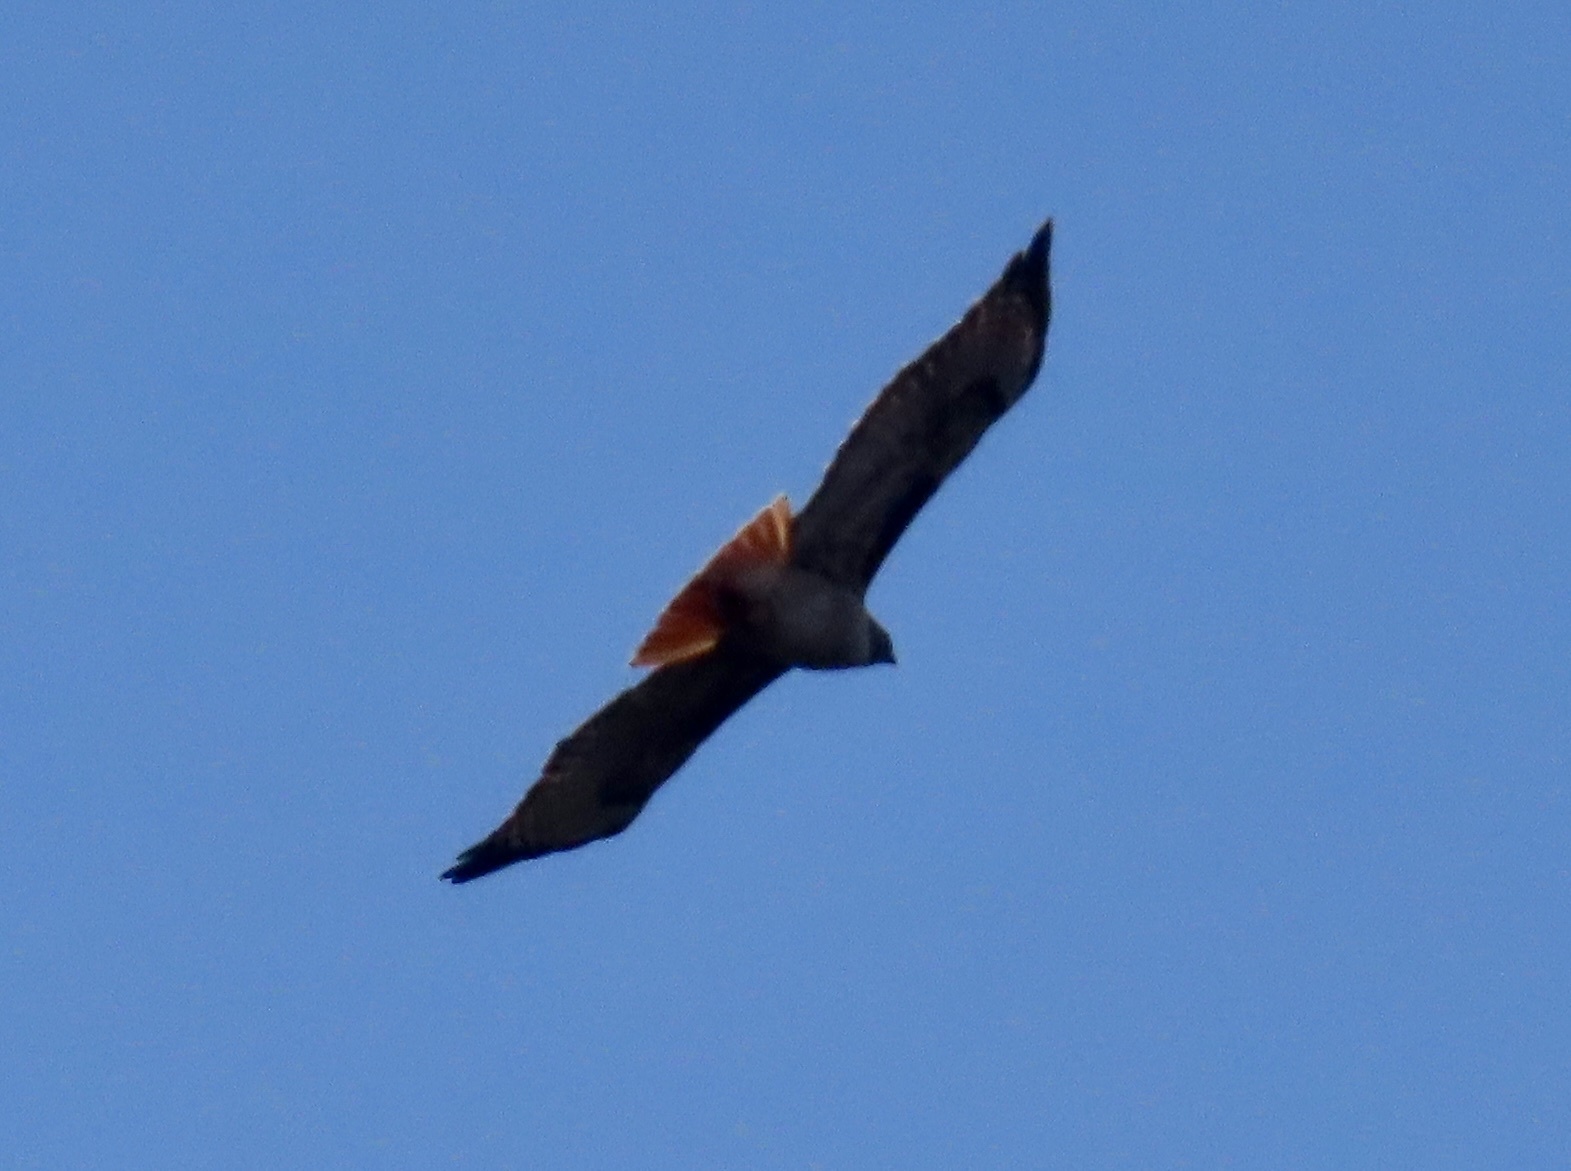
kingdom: Animalia
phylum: Chordata
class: Aves
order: Accipitriformes
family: Accipitridae
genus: Buteo
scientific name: Buteo jamaicensis
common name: Red-tailed hawk
